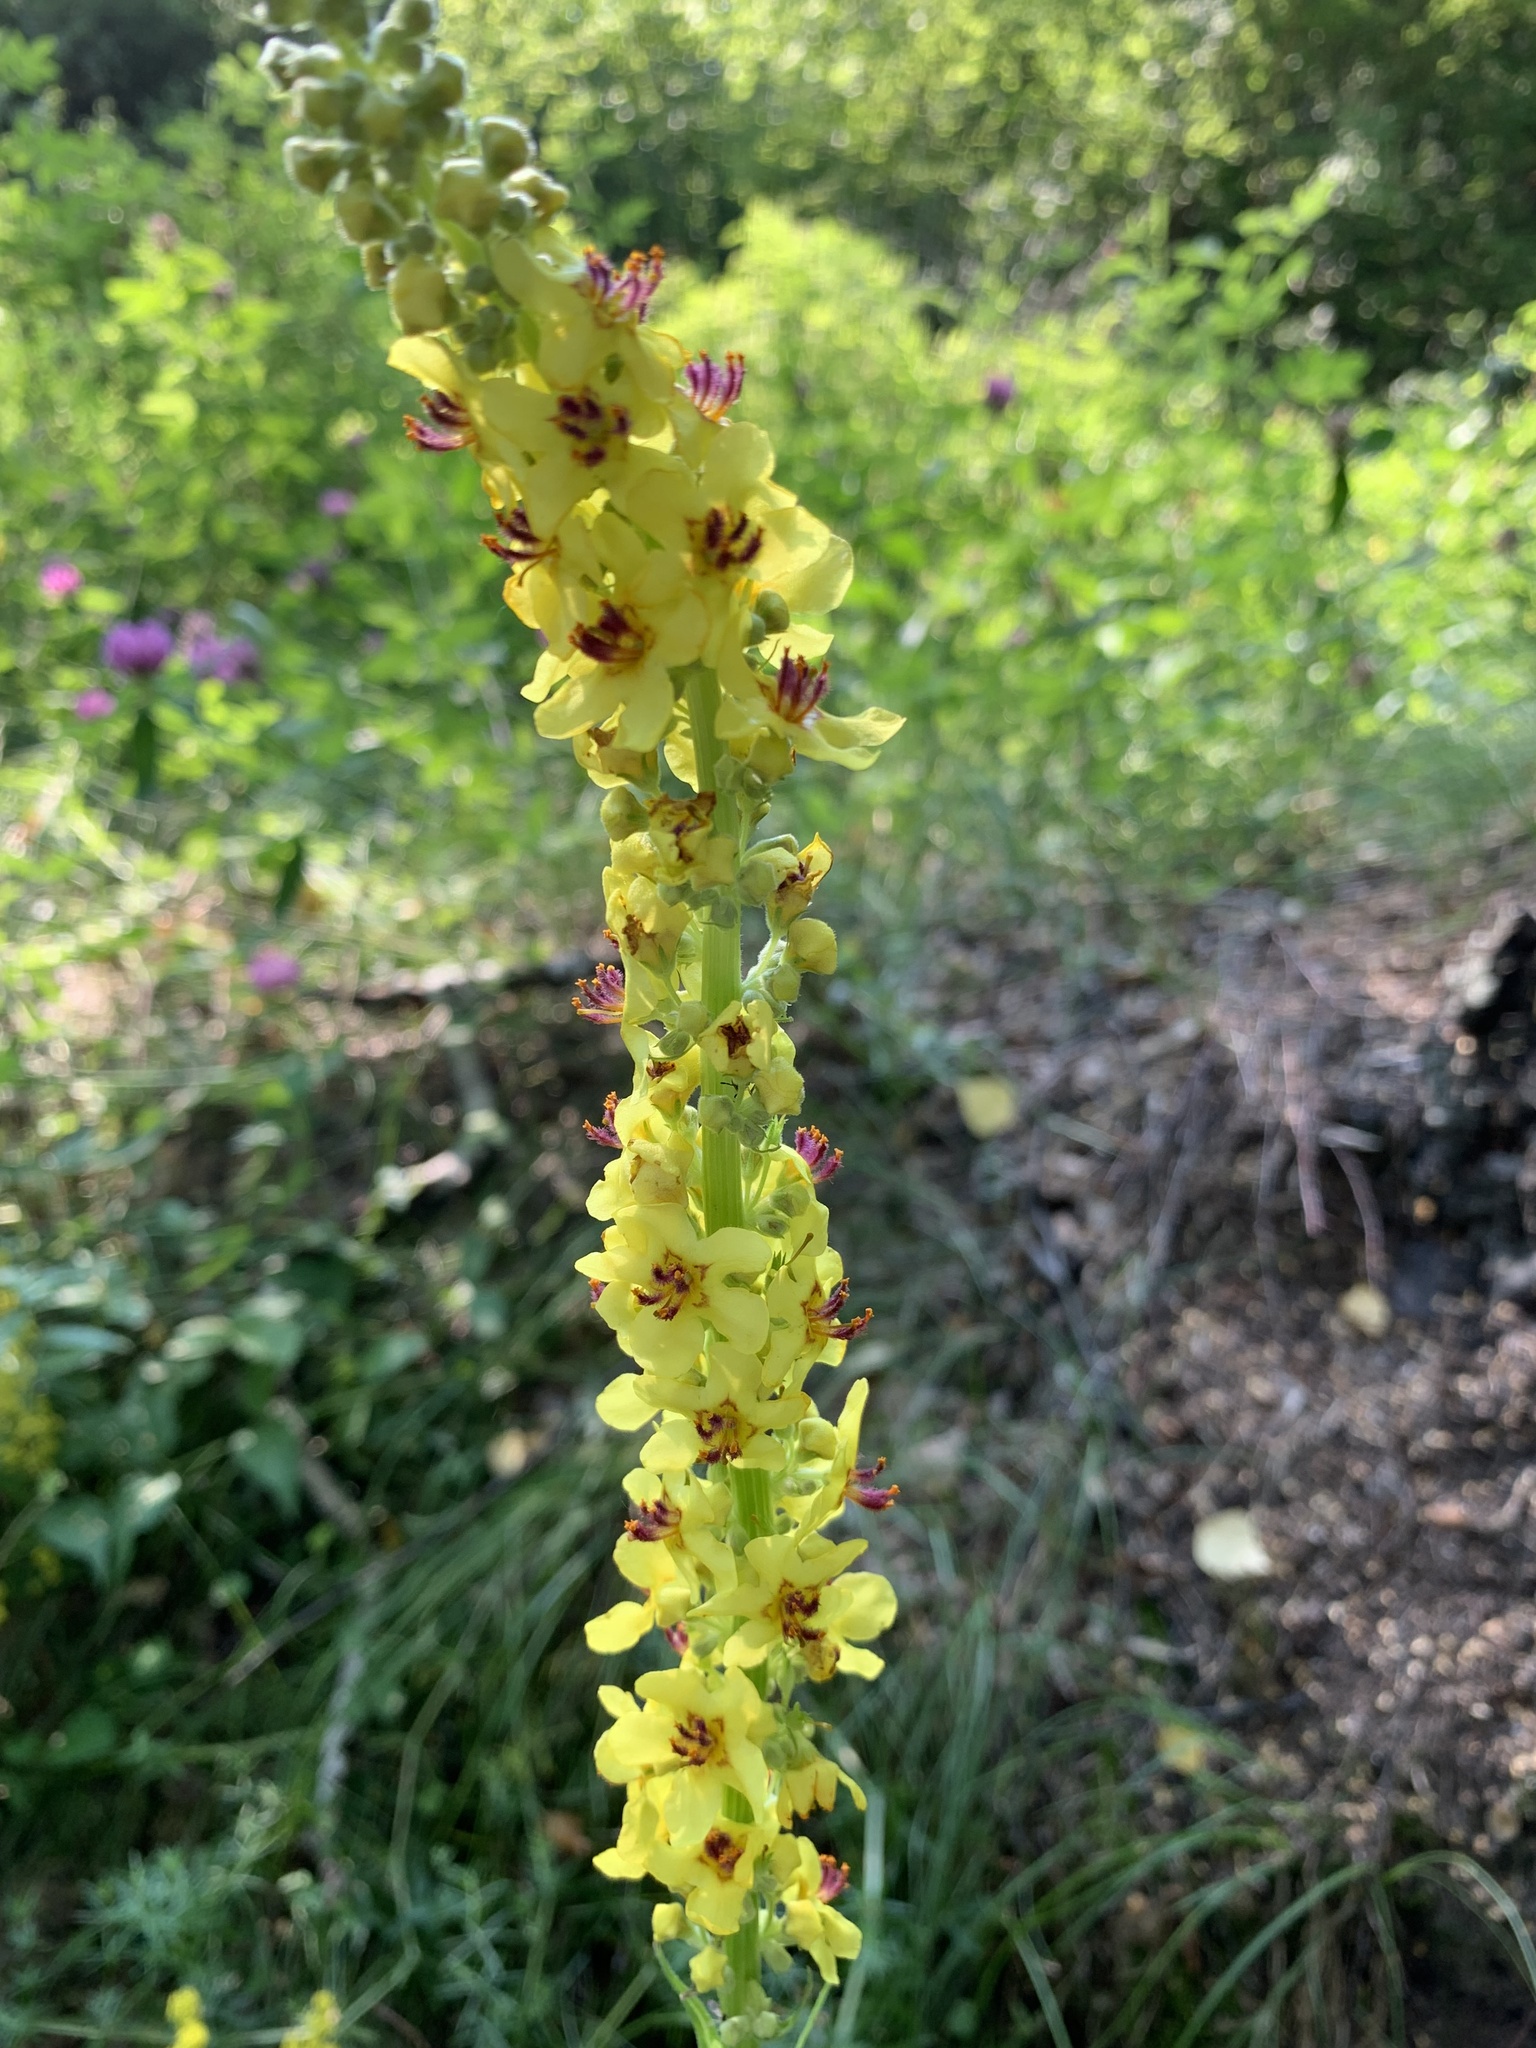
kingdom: Plantae
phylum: Tracheophyta
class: Magnoliopsida
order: Lamiales
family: Scrophulariaceae
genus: Verbascum
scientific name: Verbascum nigrum
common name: Dark mullein
